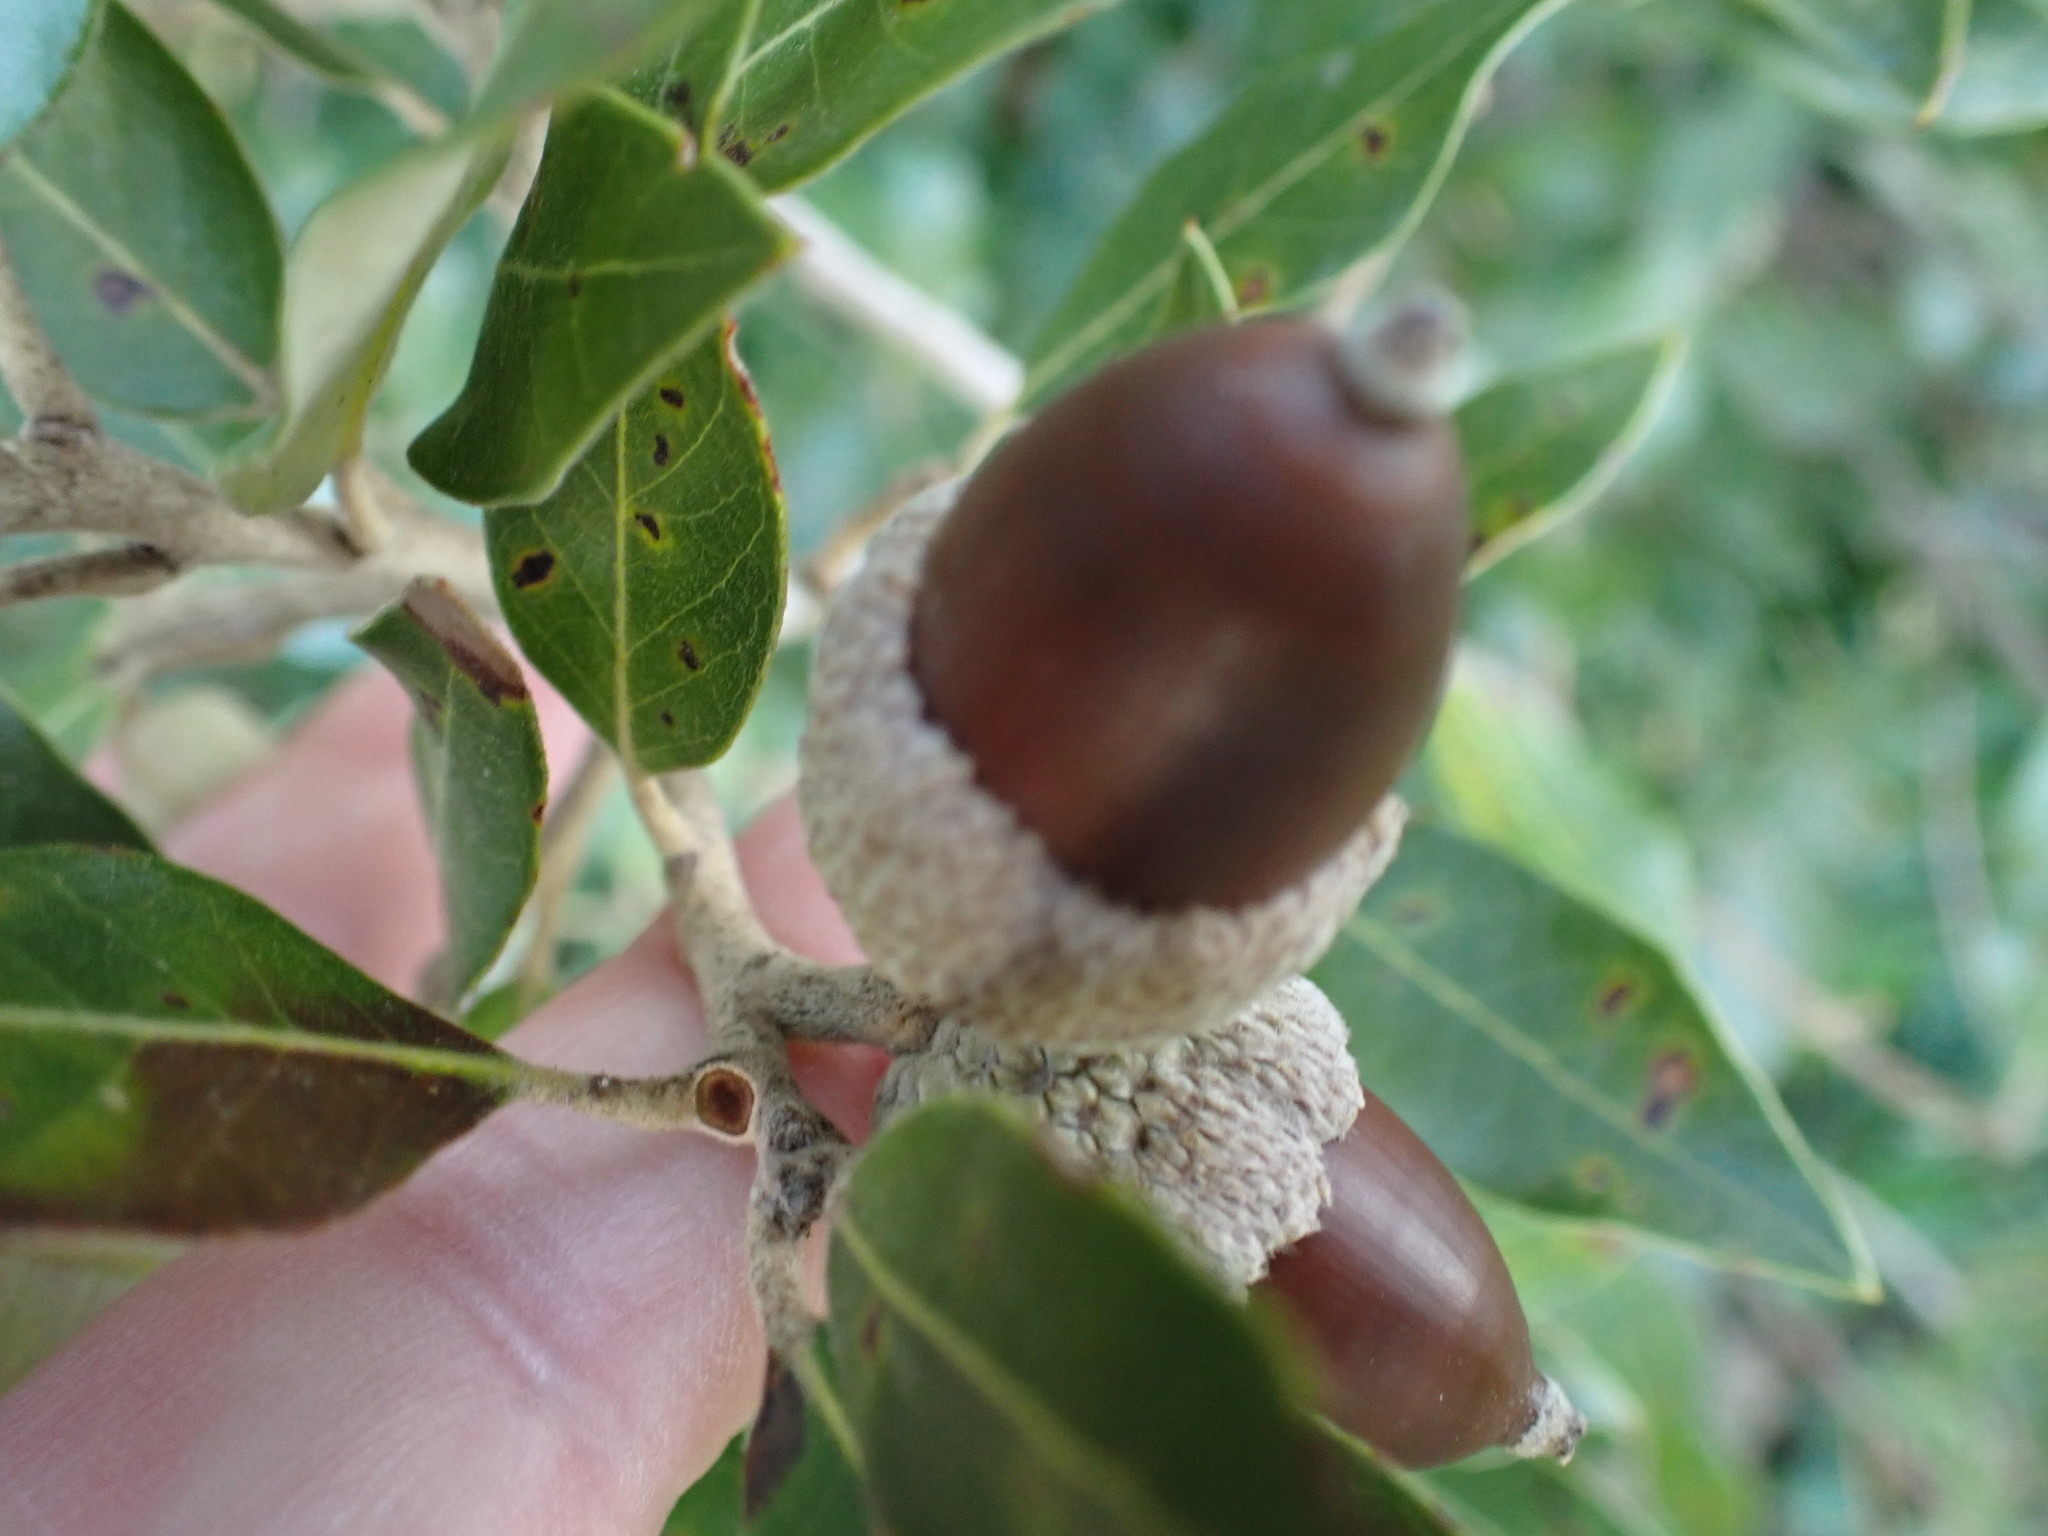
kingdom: Plantae
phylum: Tracheophyta
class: Magnoliopsida
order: Fagales
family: Fagaceae
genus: Quercus
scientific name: Quercus ilex
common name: Evergreen oak
